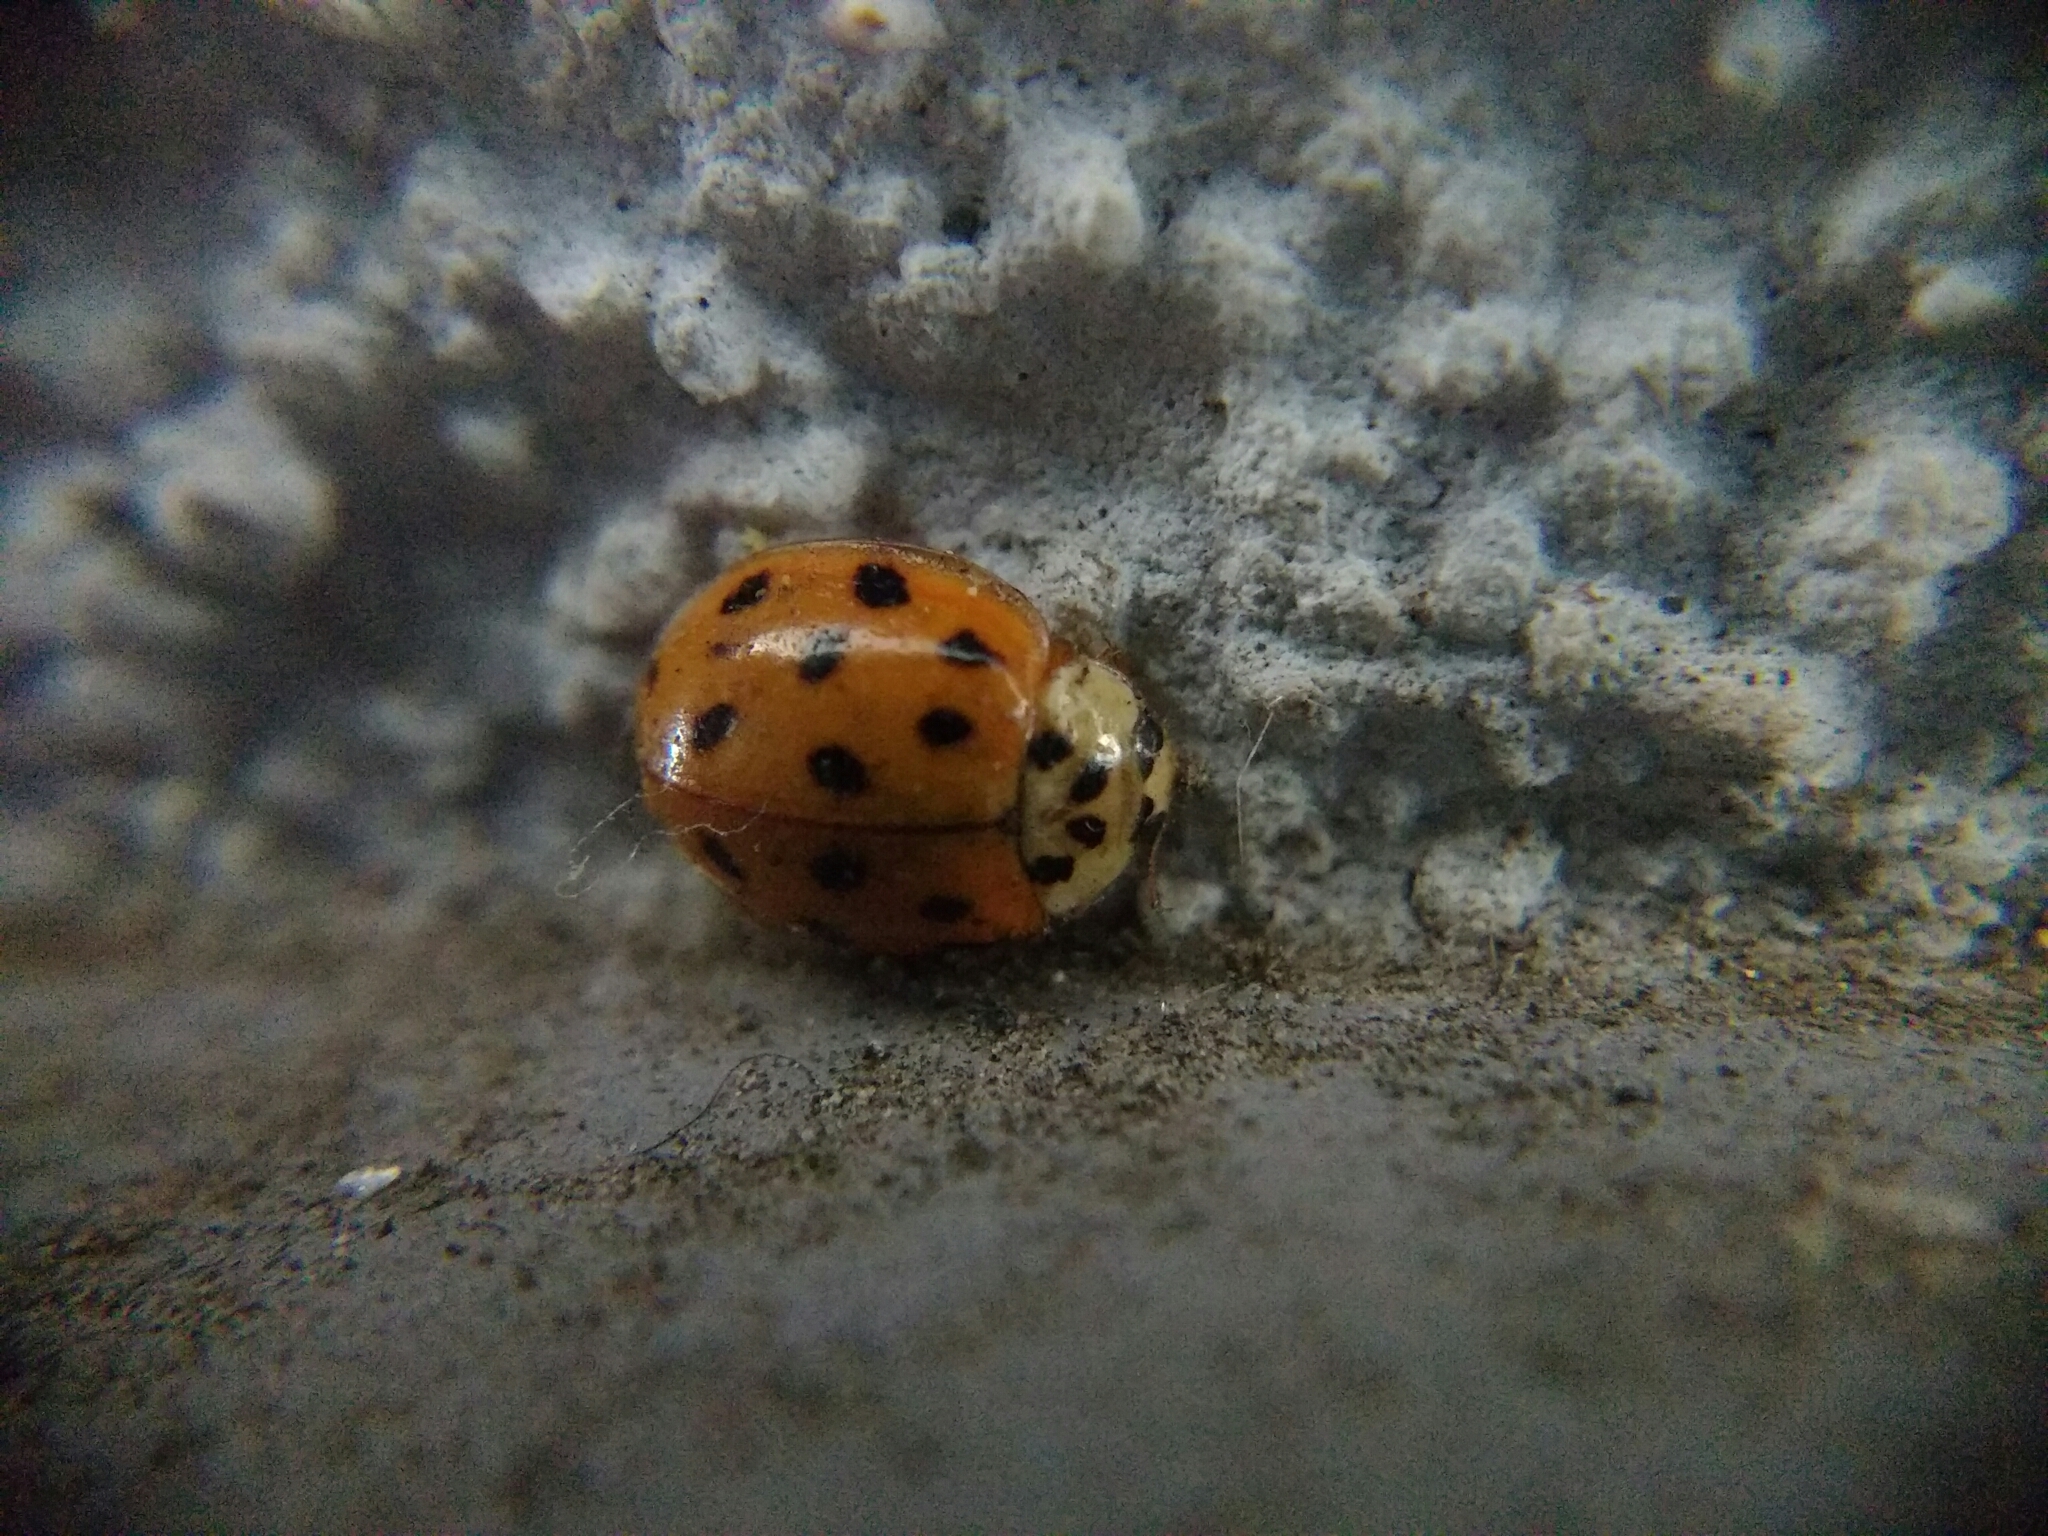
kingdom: Animalia
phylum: Arthropoda
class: Insecta
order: Coleoptera
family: Coccinellidae
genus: Harmonia
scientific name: Harmonia axyridis
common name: Harlequin ladybird
